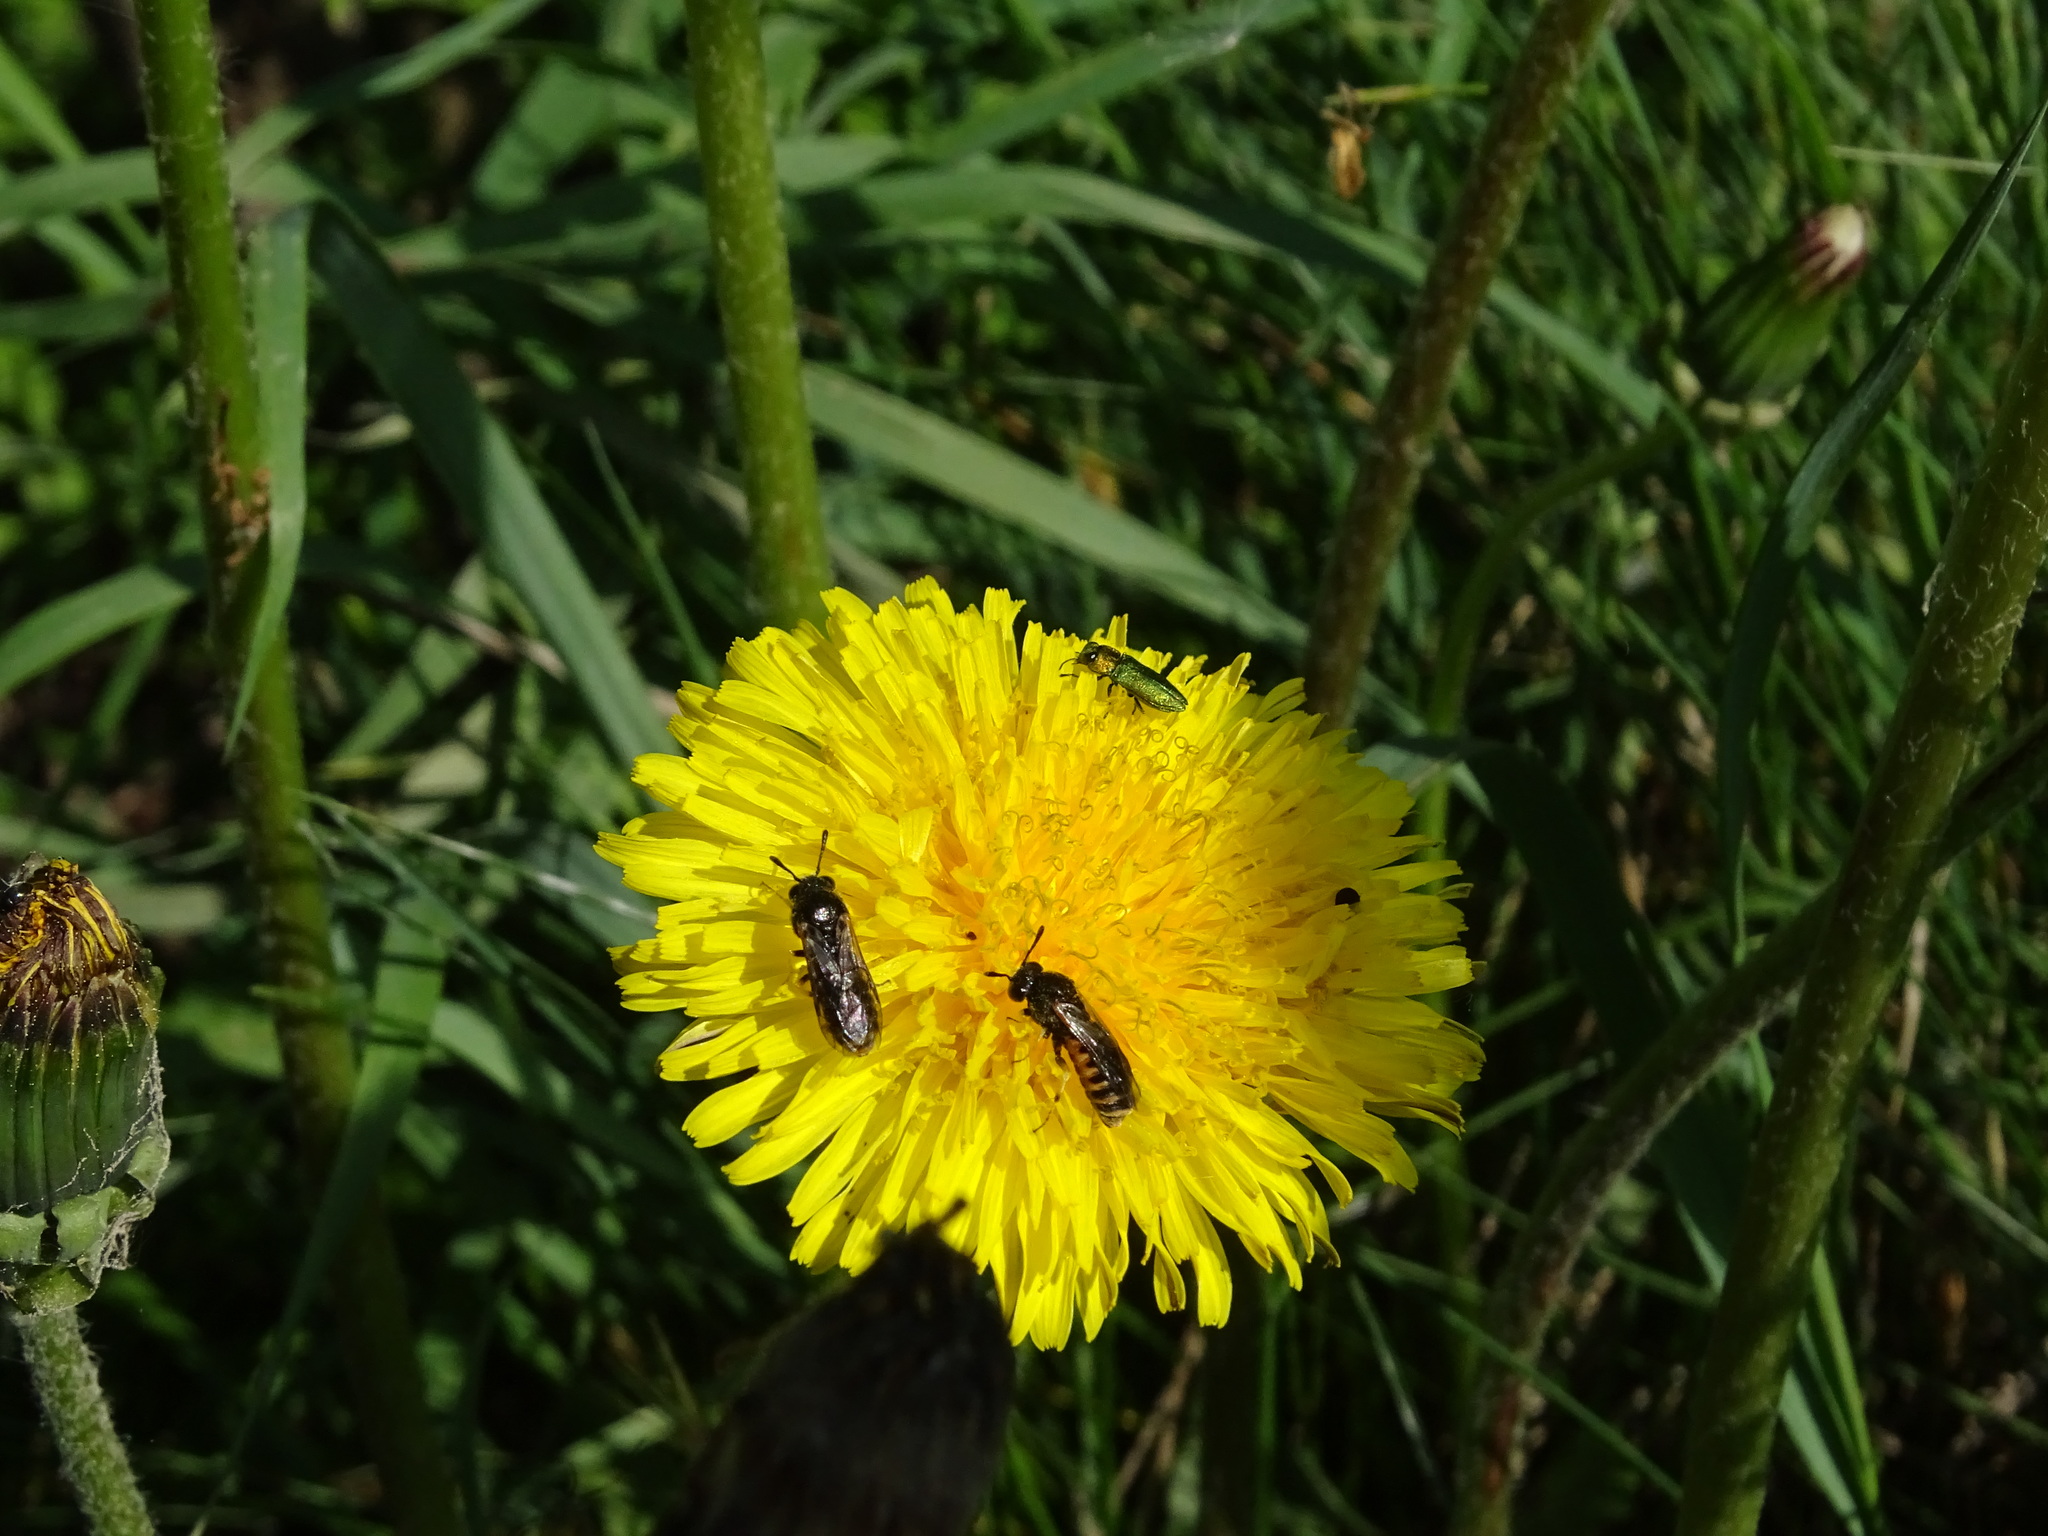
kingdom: Animalia
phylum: Arthropoda
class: Insecta
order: Hymenoptera
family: Cimbicidae
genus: Corynis
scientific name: Corynis crassicornis
